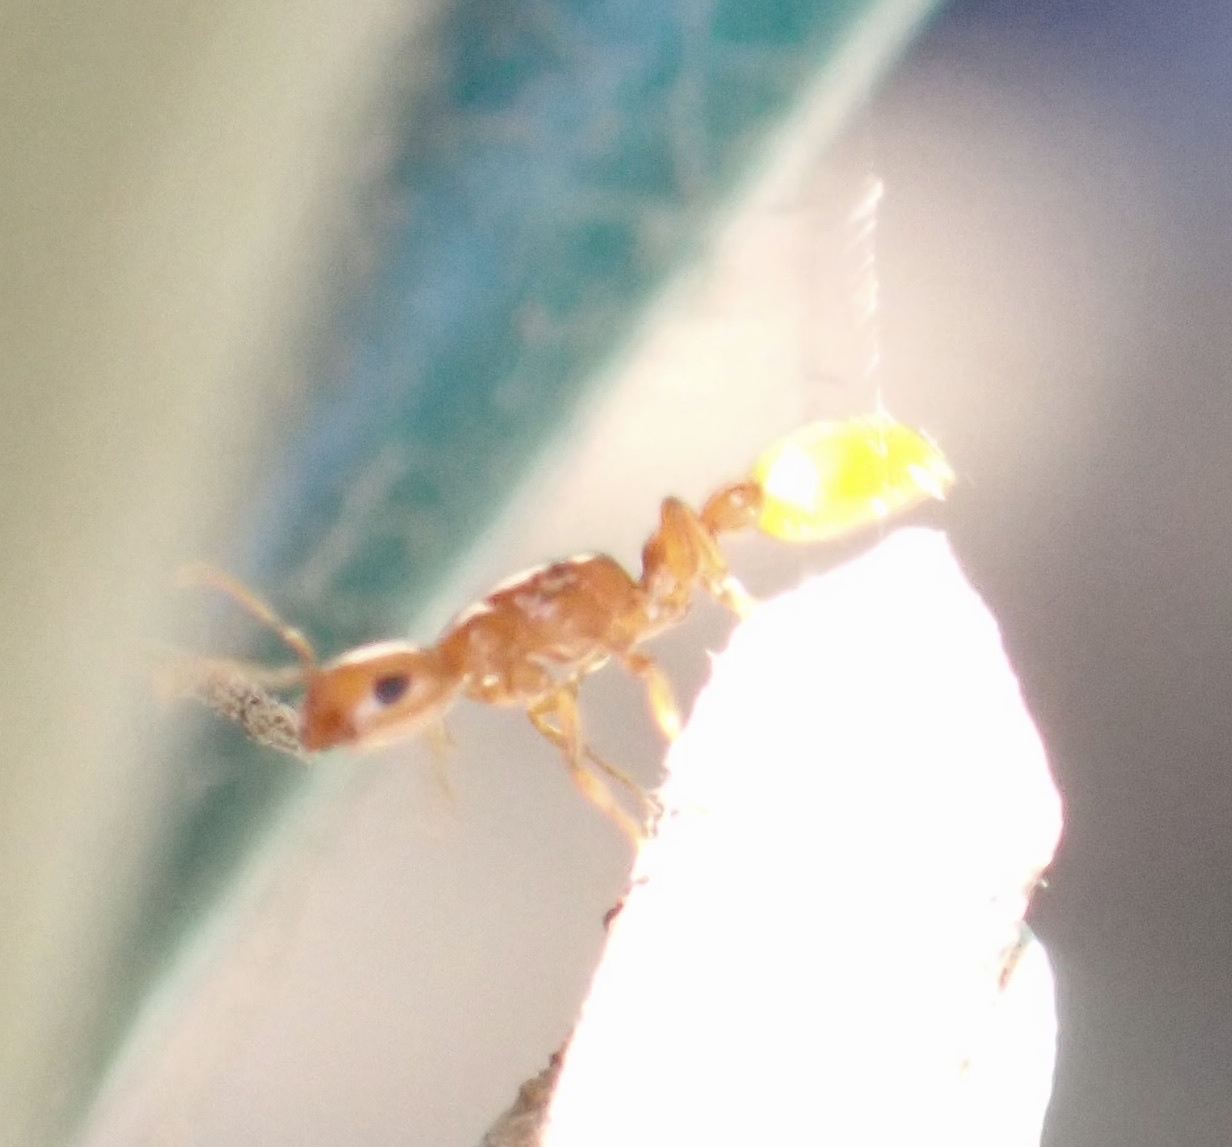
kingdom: Animalia
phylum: Arthropoda
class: Insecta
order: Hymenoptera
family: Formicidae
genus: Tetraponera
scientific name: Tetraponera emeryi
